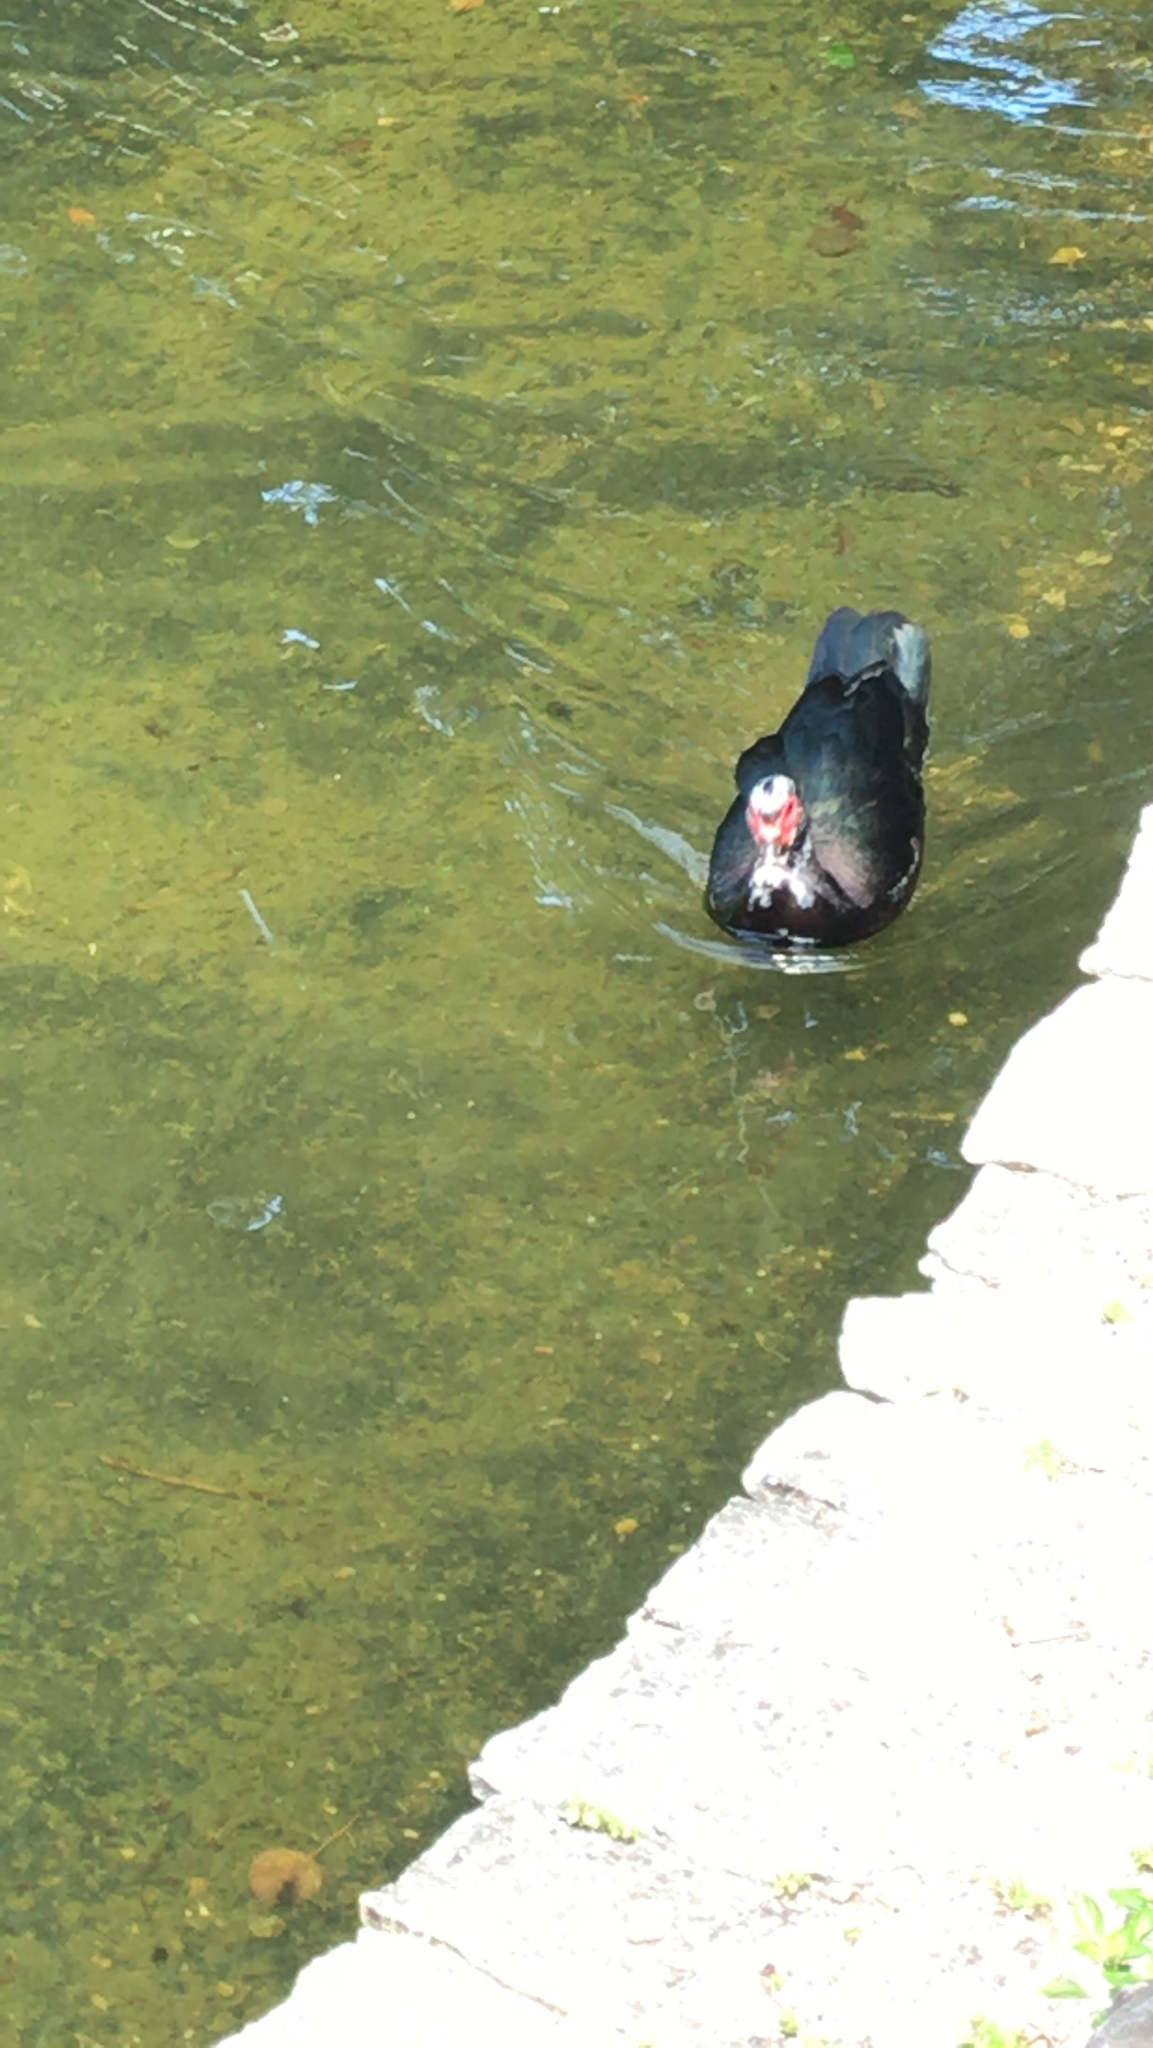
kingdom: Animalia
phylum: Chordata
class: Aves
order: Anseriformes
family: Anatidae
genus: Cairina
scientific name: Cairina moschata
